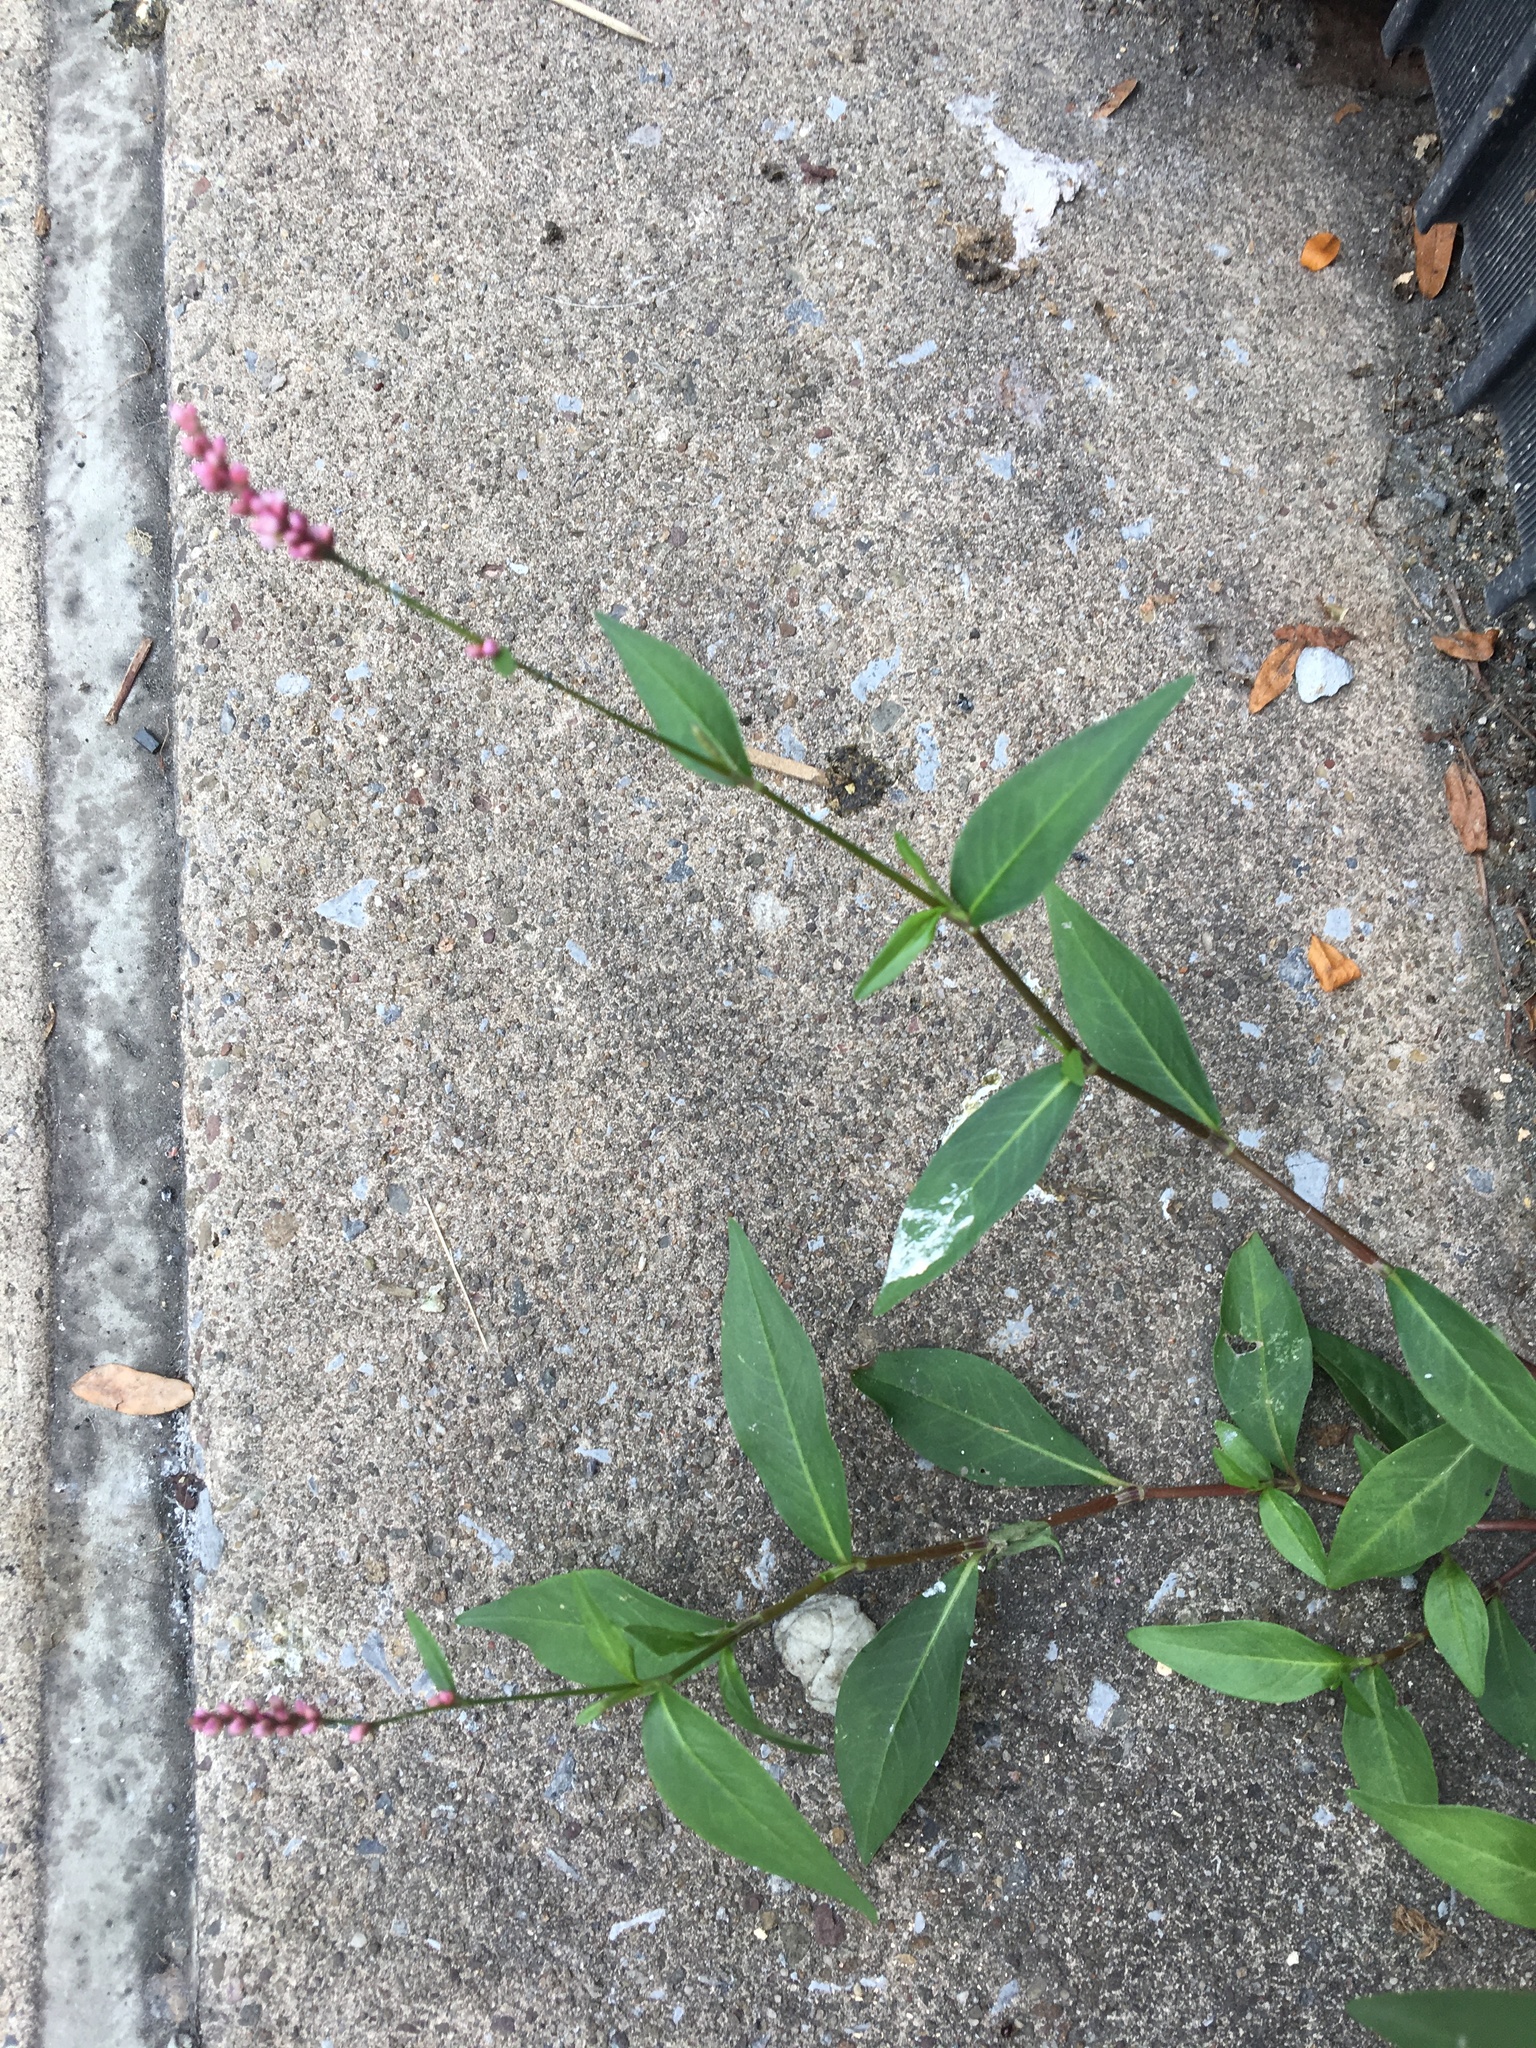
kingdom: Plantae
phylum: Tracheophyta
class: Magnoliopsida
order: Caryophyllales
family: Polygonaceae
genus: Persicaria
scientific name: Persicaria longiseta
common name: Bristly lady's-thumb
